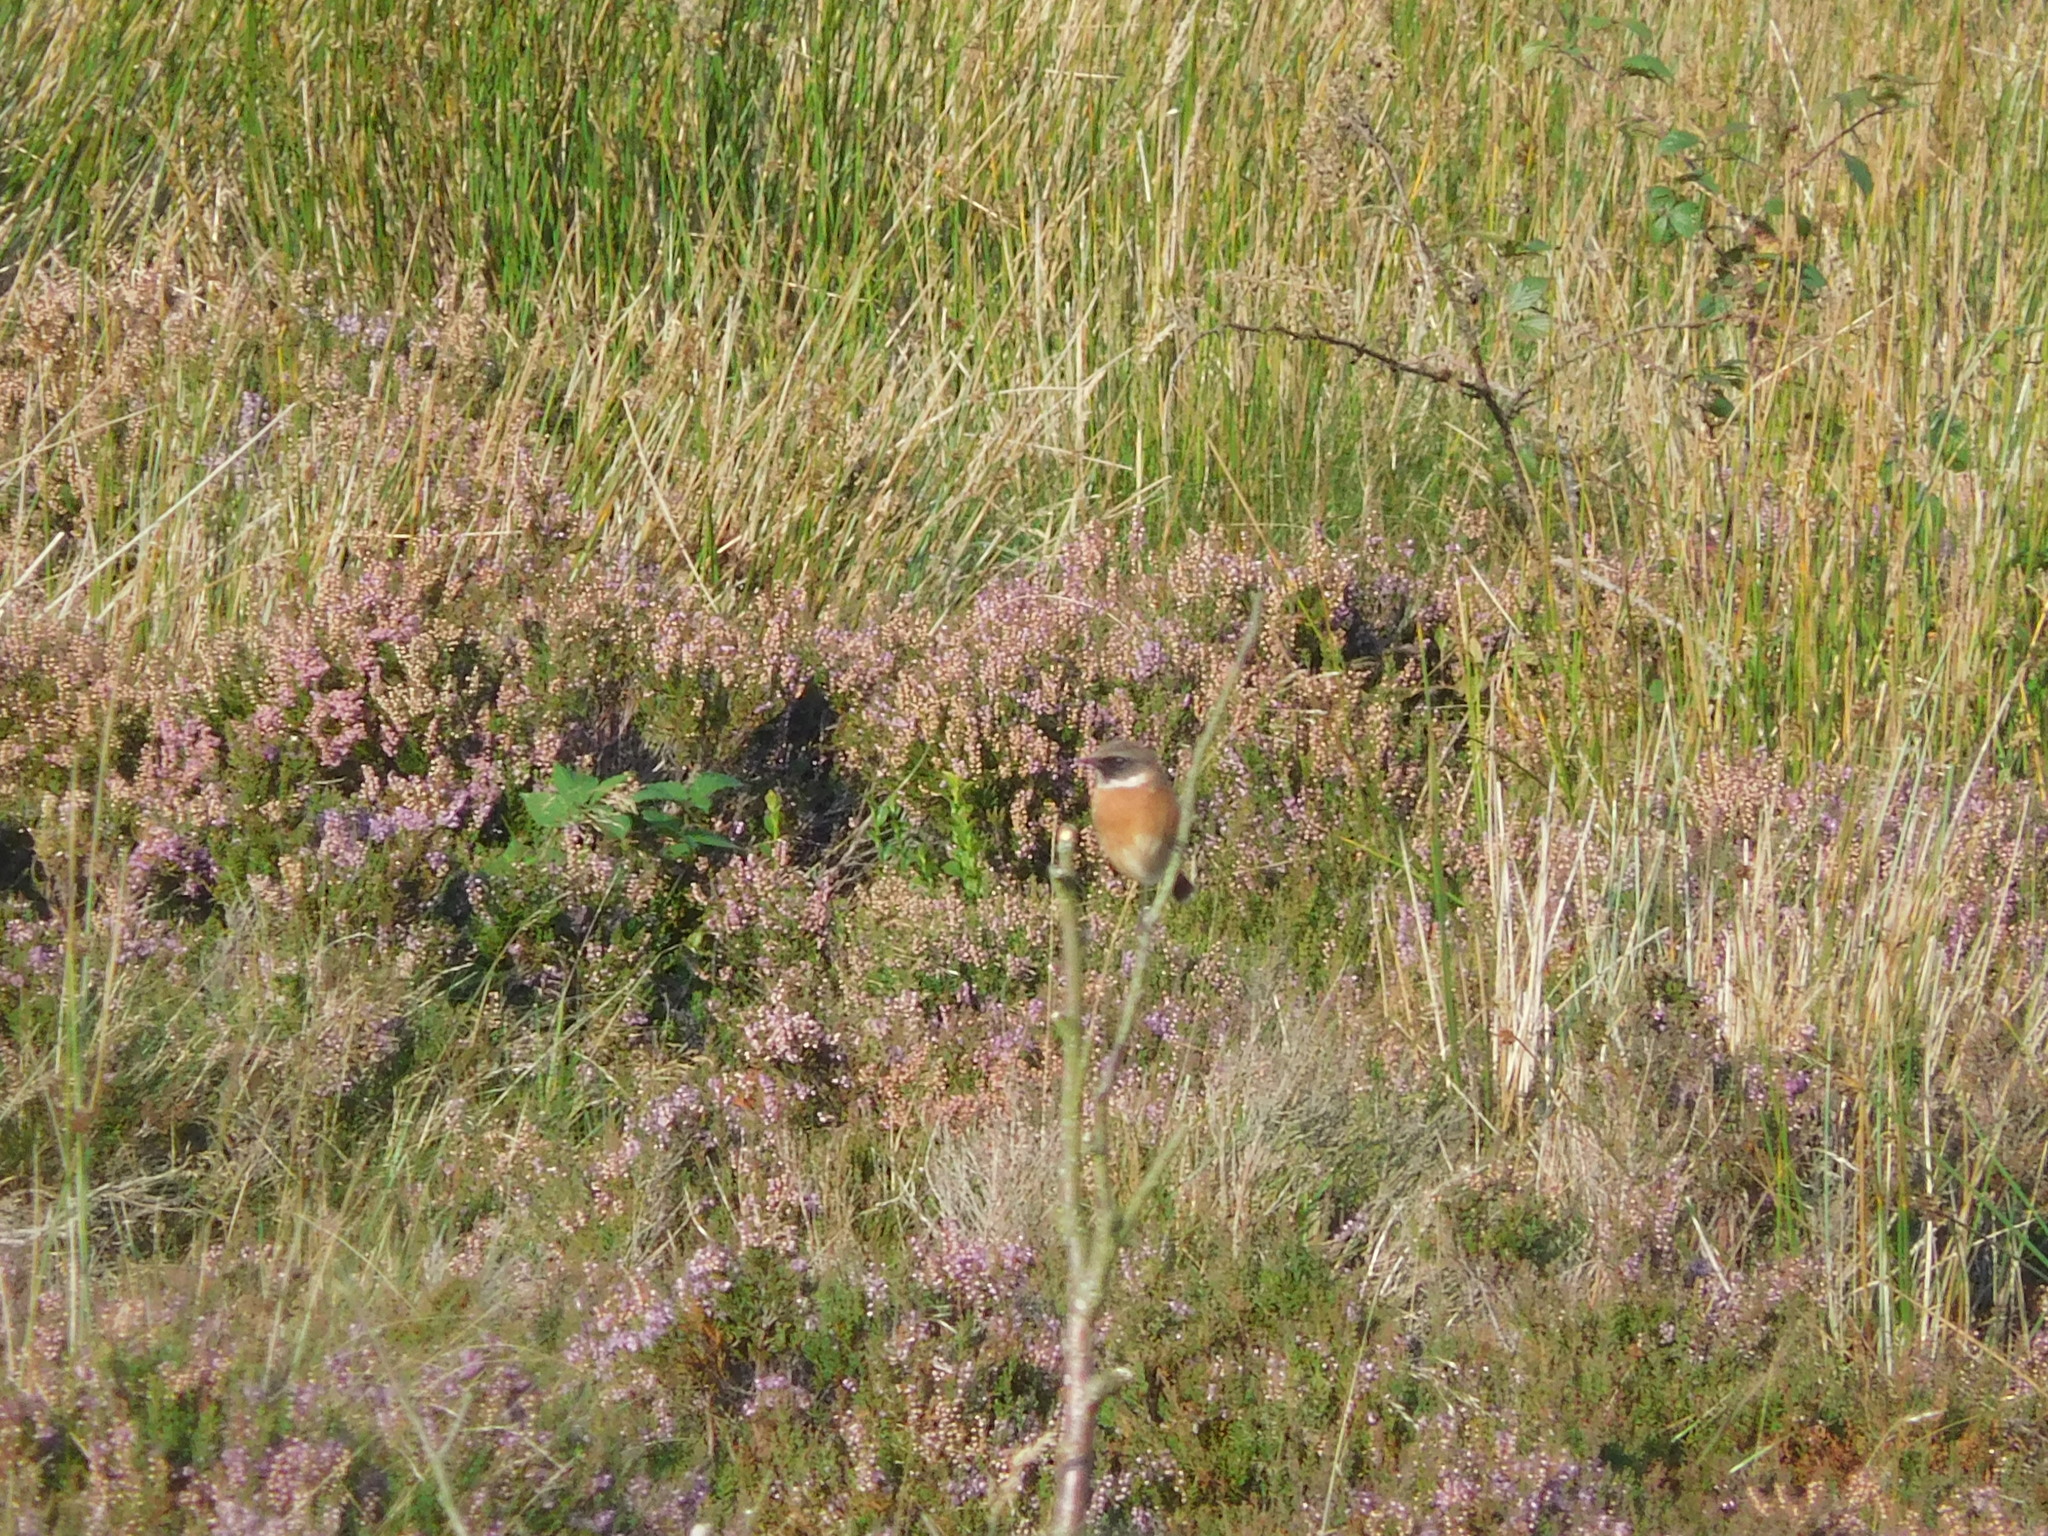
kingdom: Animalia
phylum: Chordata
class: Aves
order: Passeriformes
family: Muscicapidae
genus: Saxicola
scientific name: Saxicola rubicola
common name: European stonechat
